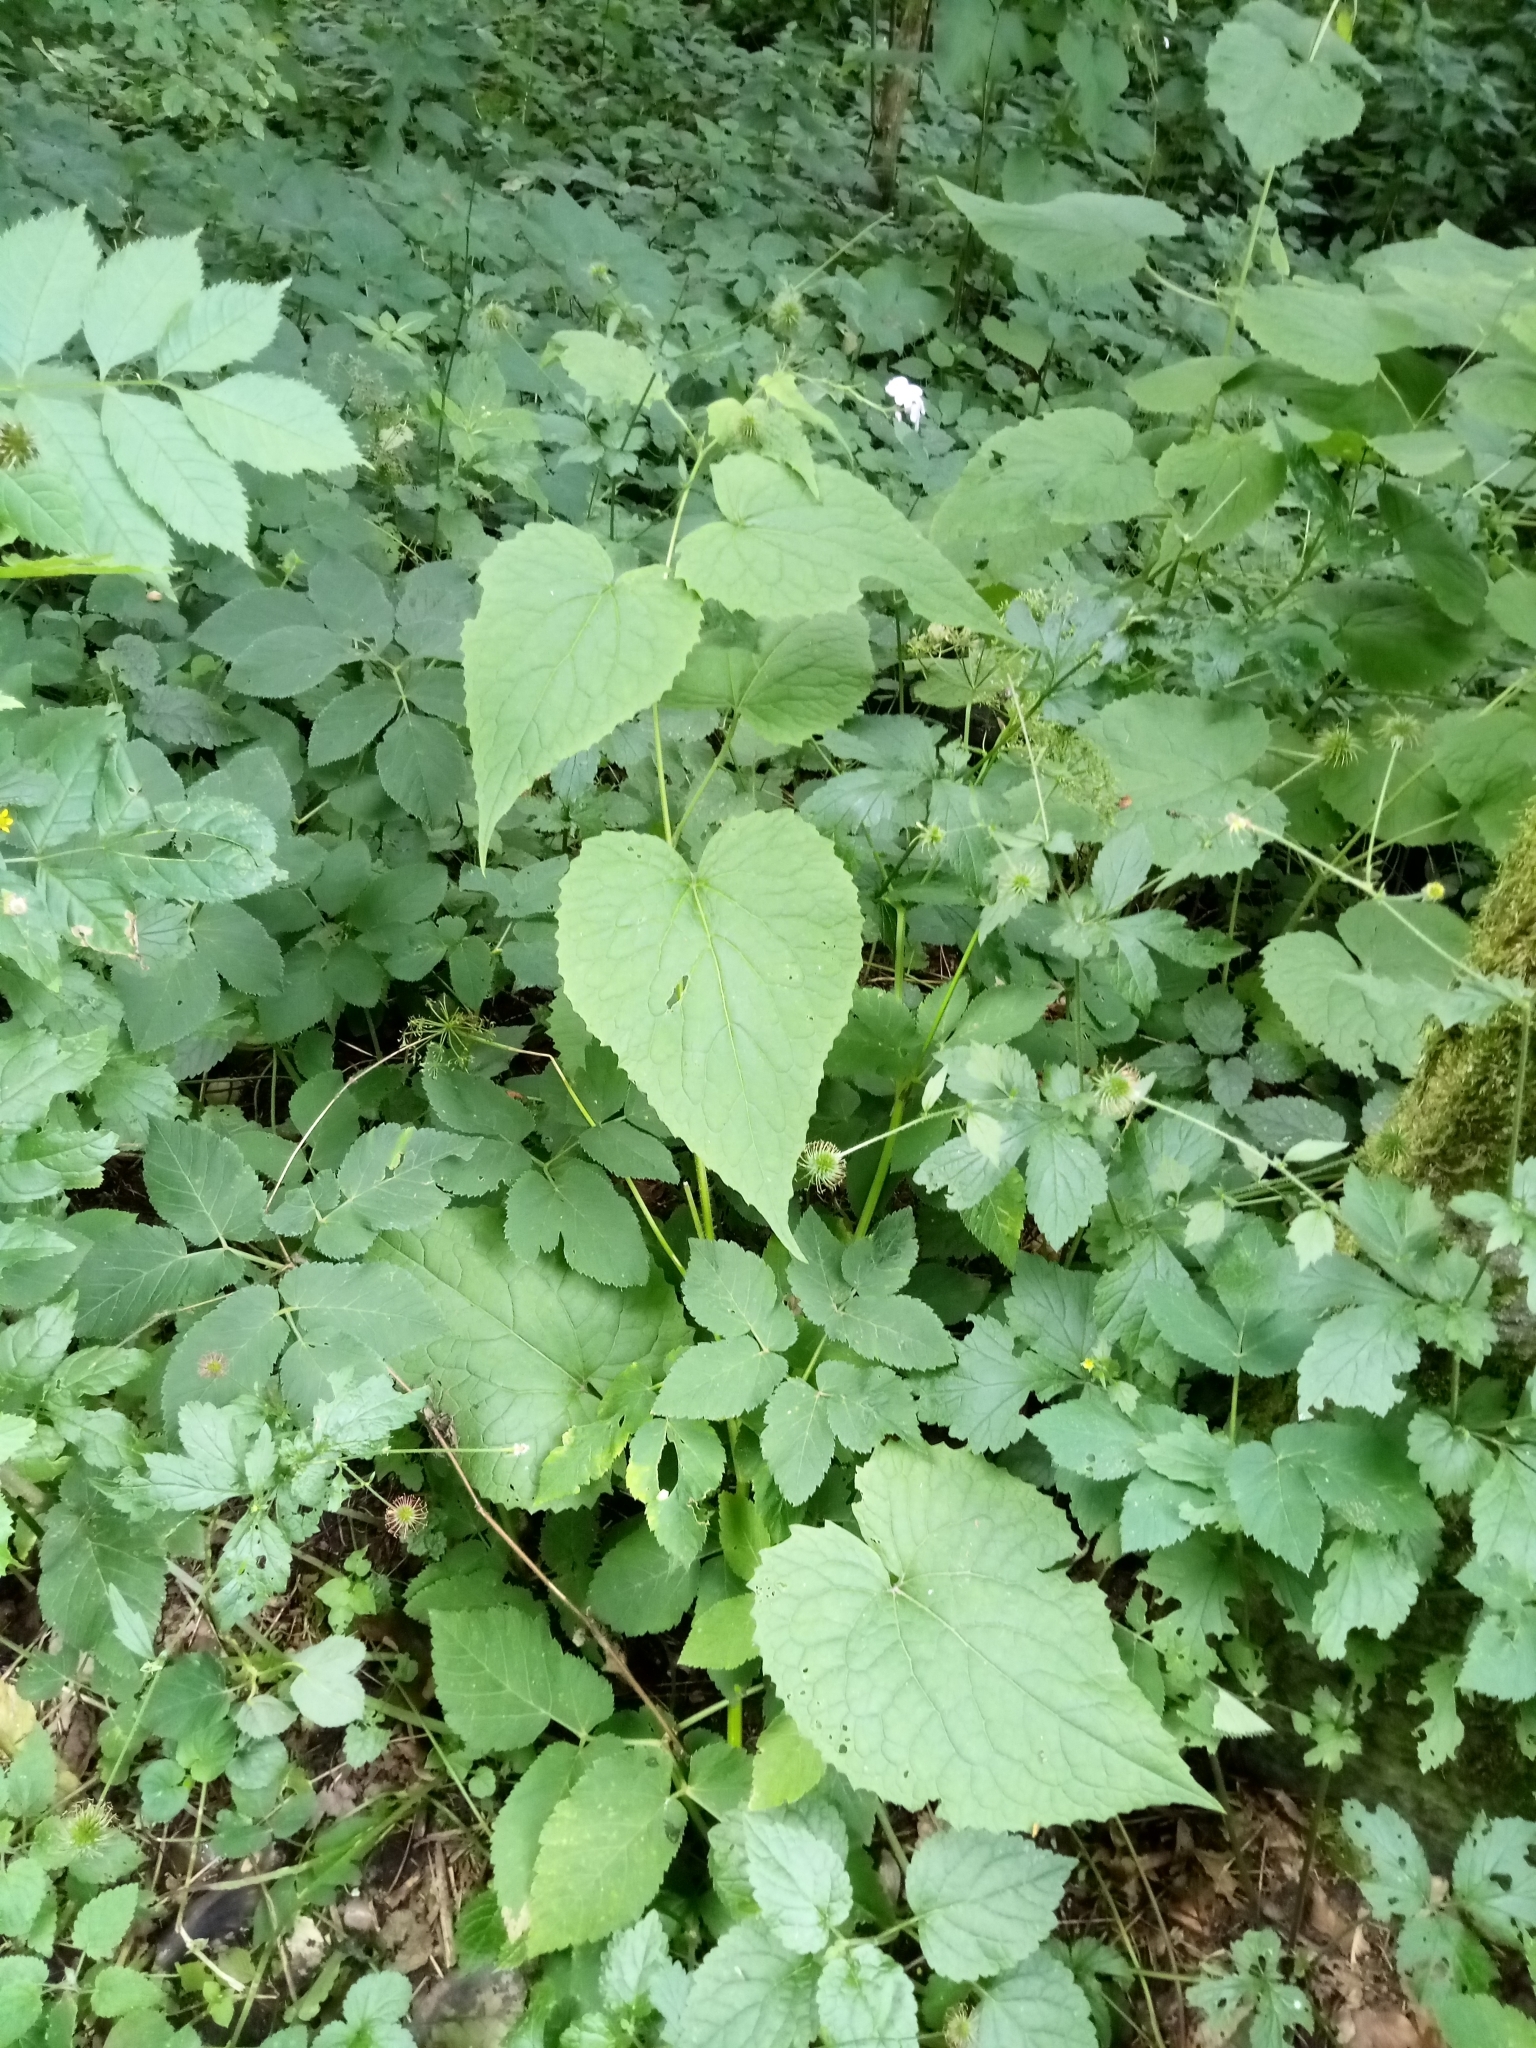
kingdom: Plantae
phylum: Tracheophyta
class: Magnoliopsida
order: Brassicales
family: Brassicaceae
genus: Lunaria
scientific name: Lunaria rediviva
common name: Perennial honesty
